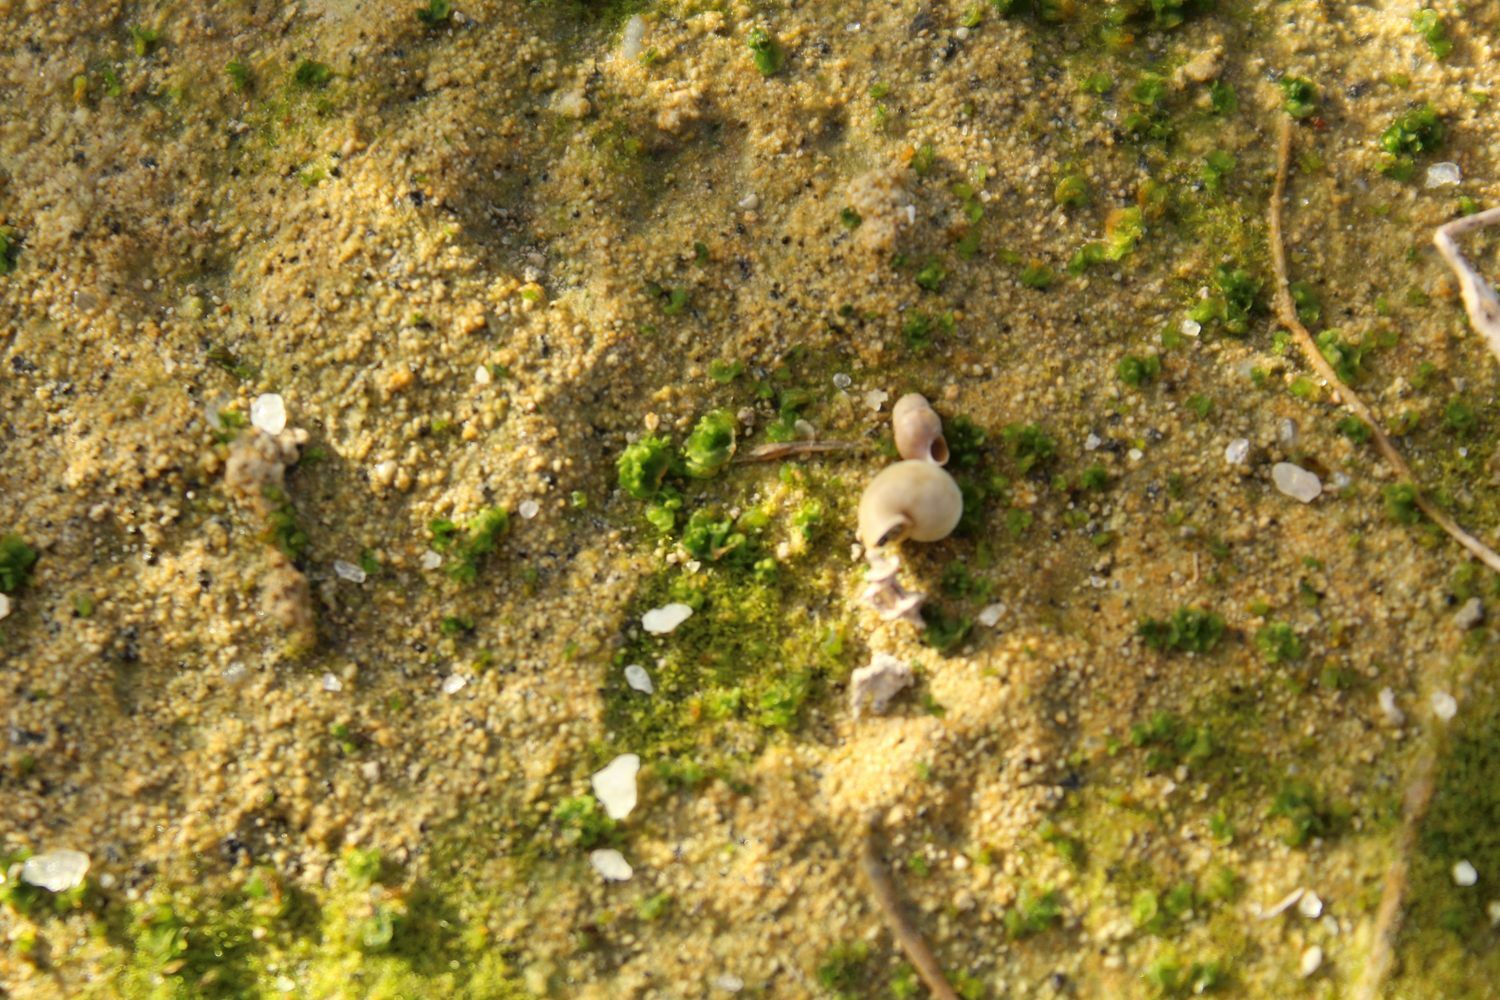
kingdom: Plantae
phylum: Marchantiophyta
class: Marchantiopsida
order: Sphaerocarpales
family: Riellaceae
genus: Austroriella
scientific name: Austroriella salta
